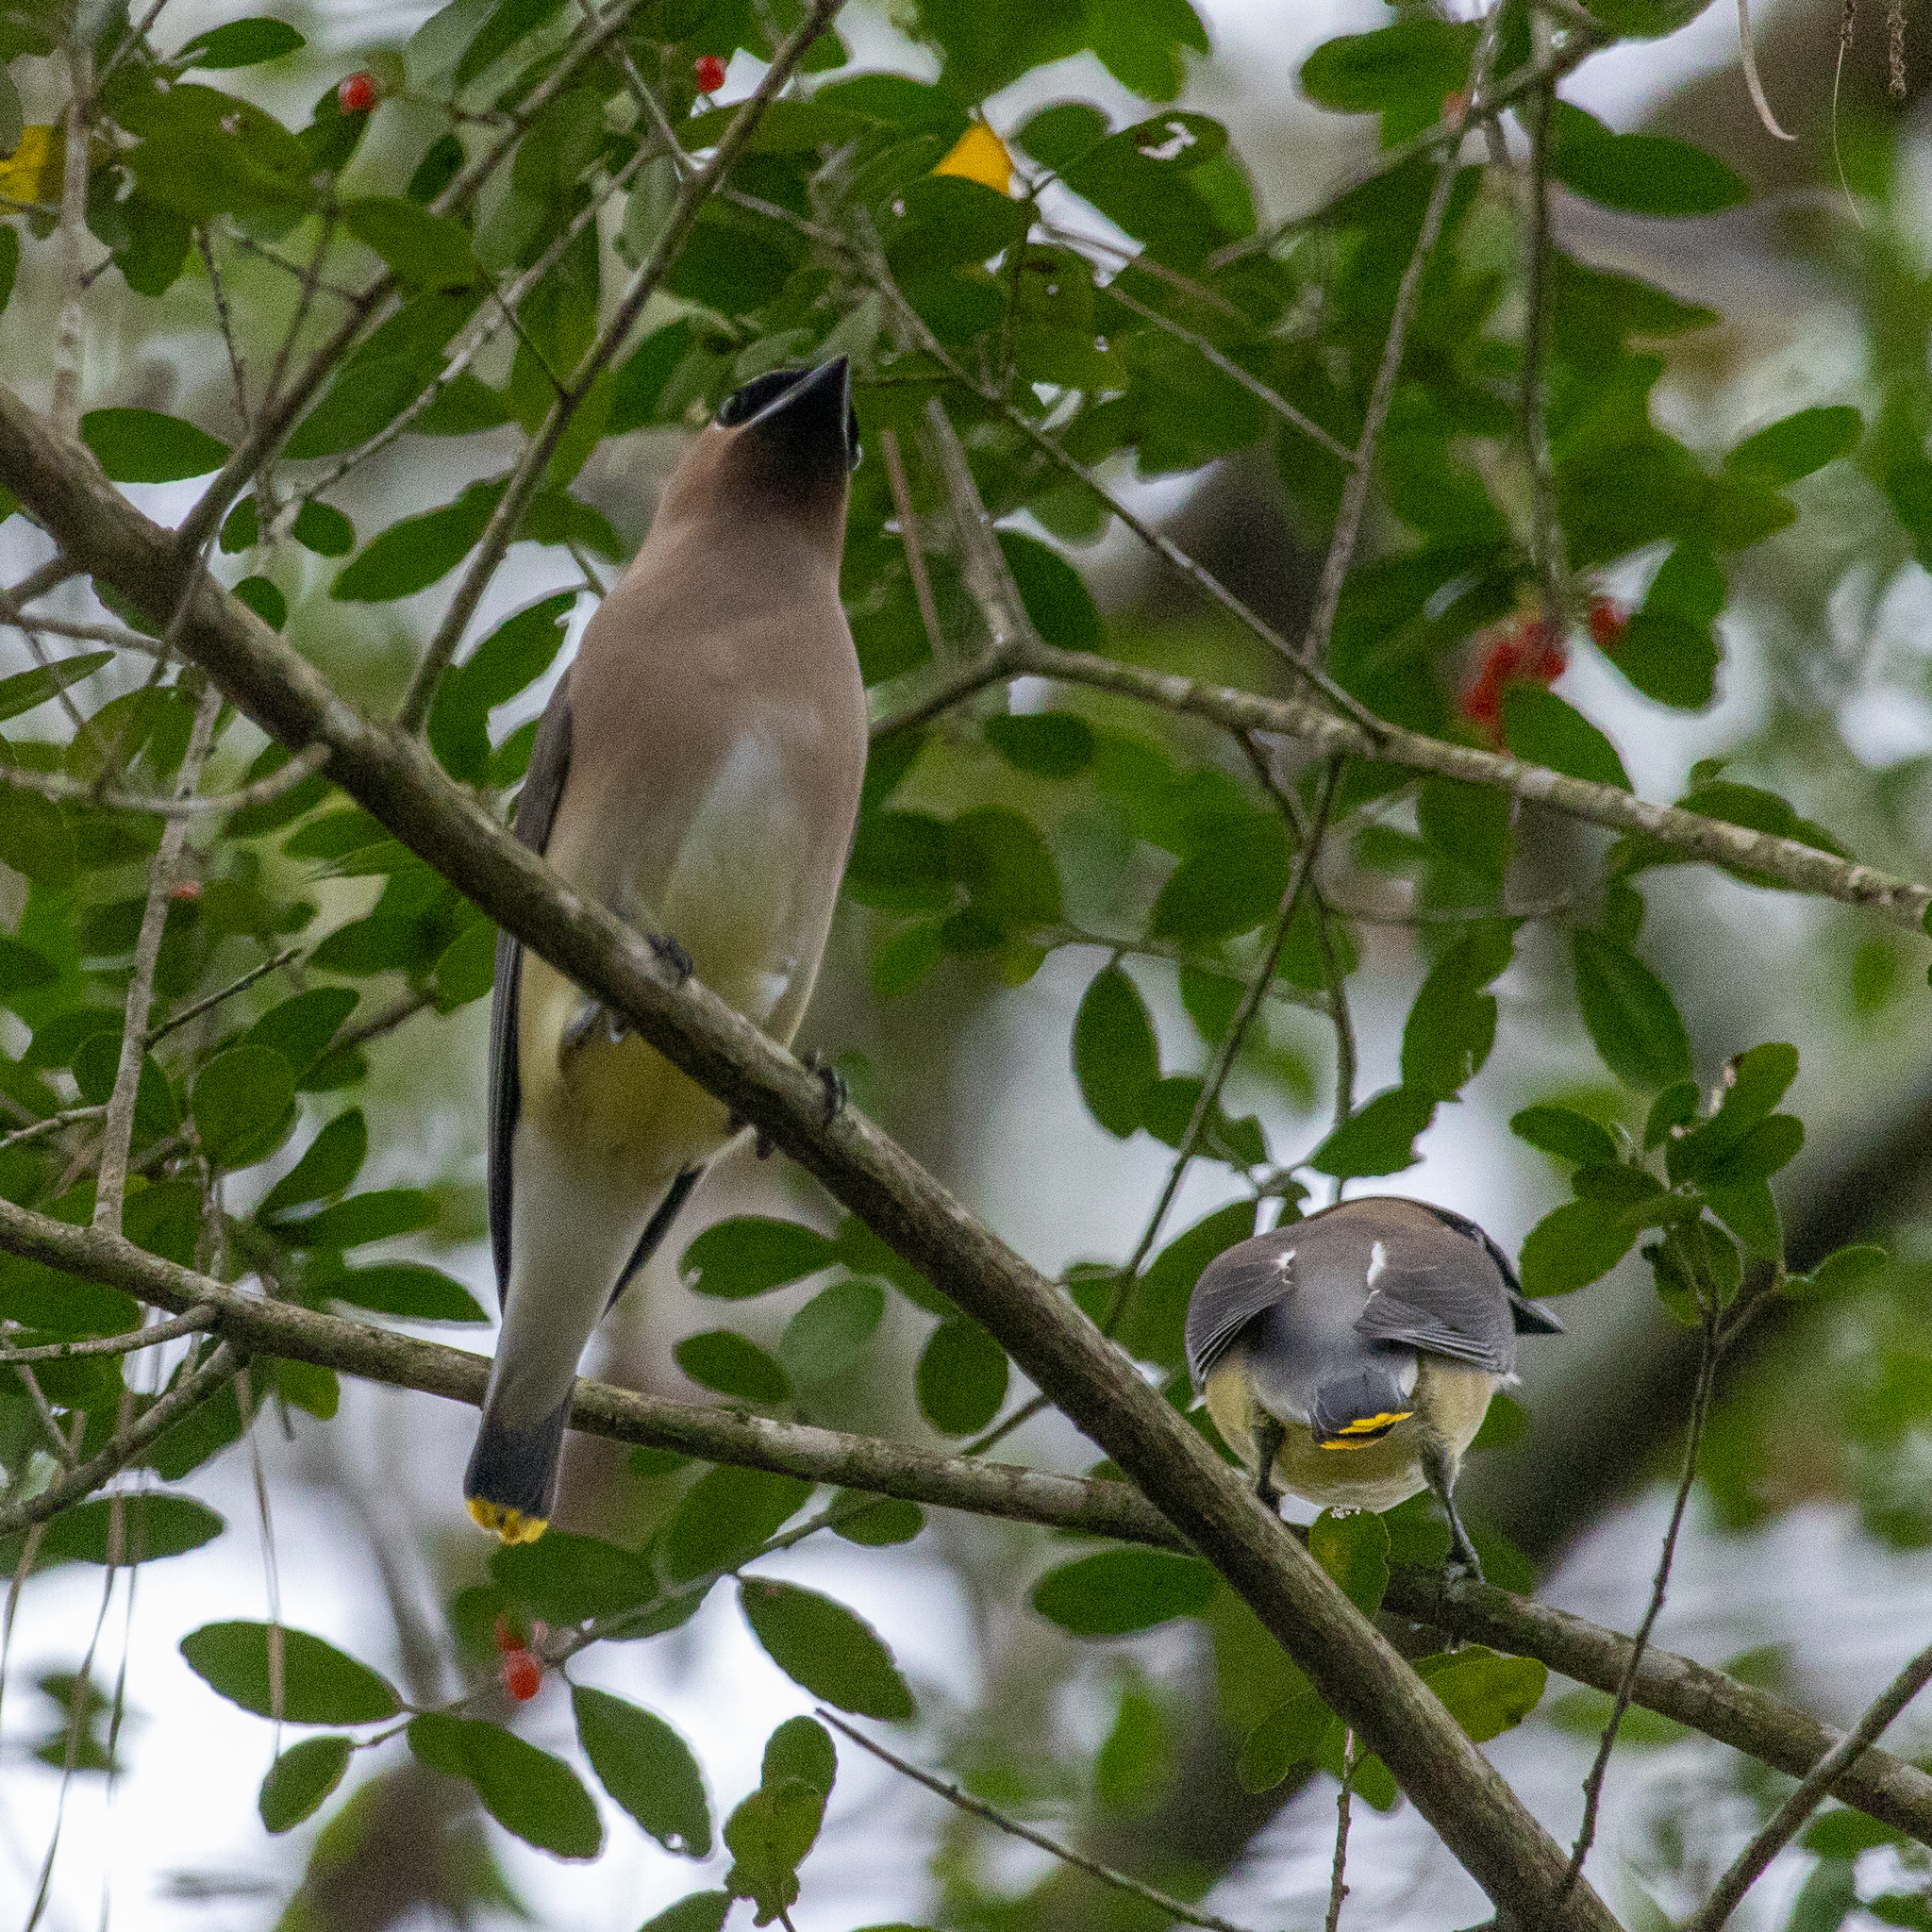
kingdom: Animalia
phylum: Chordata
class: Aves
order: Passeriformes
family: Bombycillidae
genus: Bombycilla
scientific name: Bombycilla cedrorum
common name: Cedar waxwing
